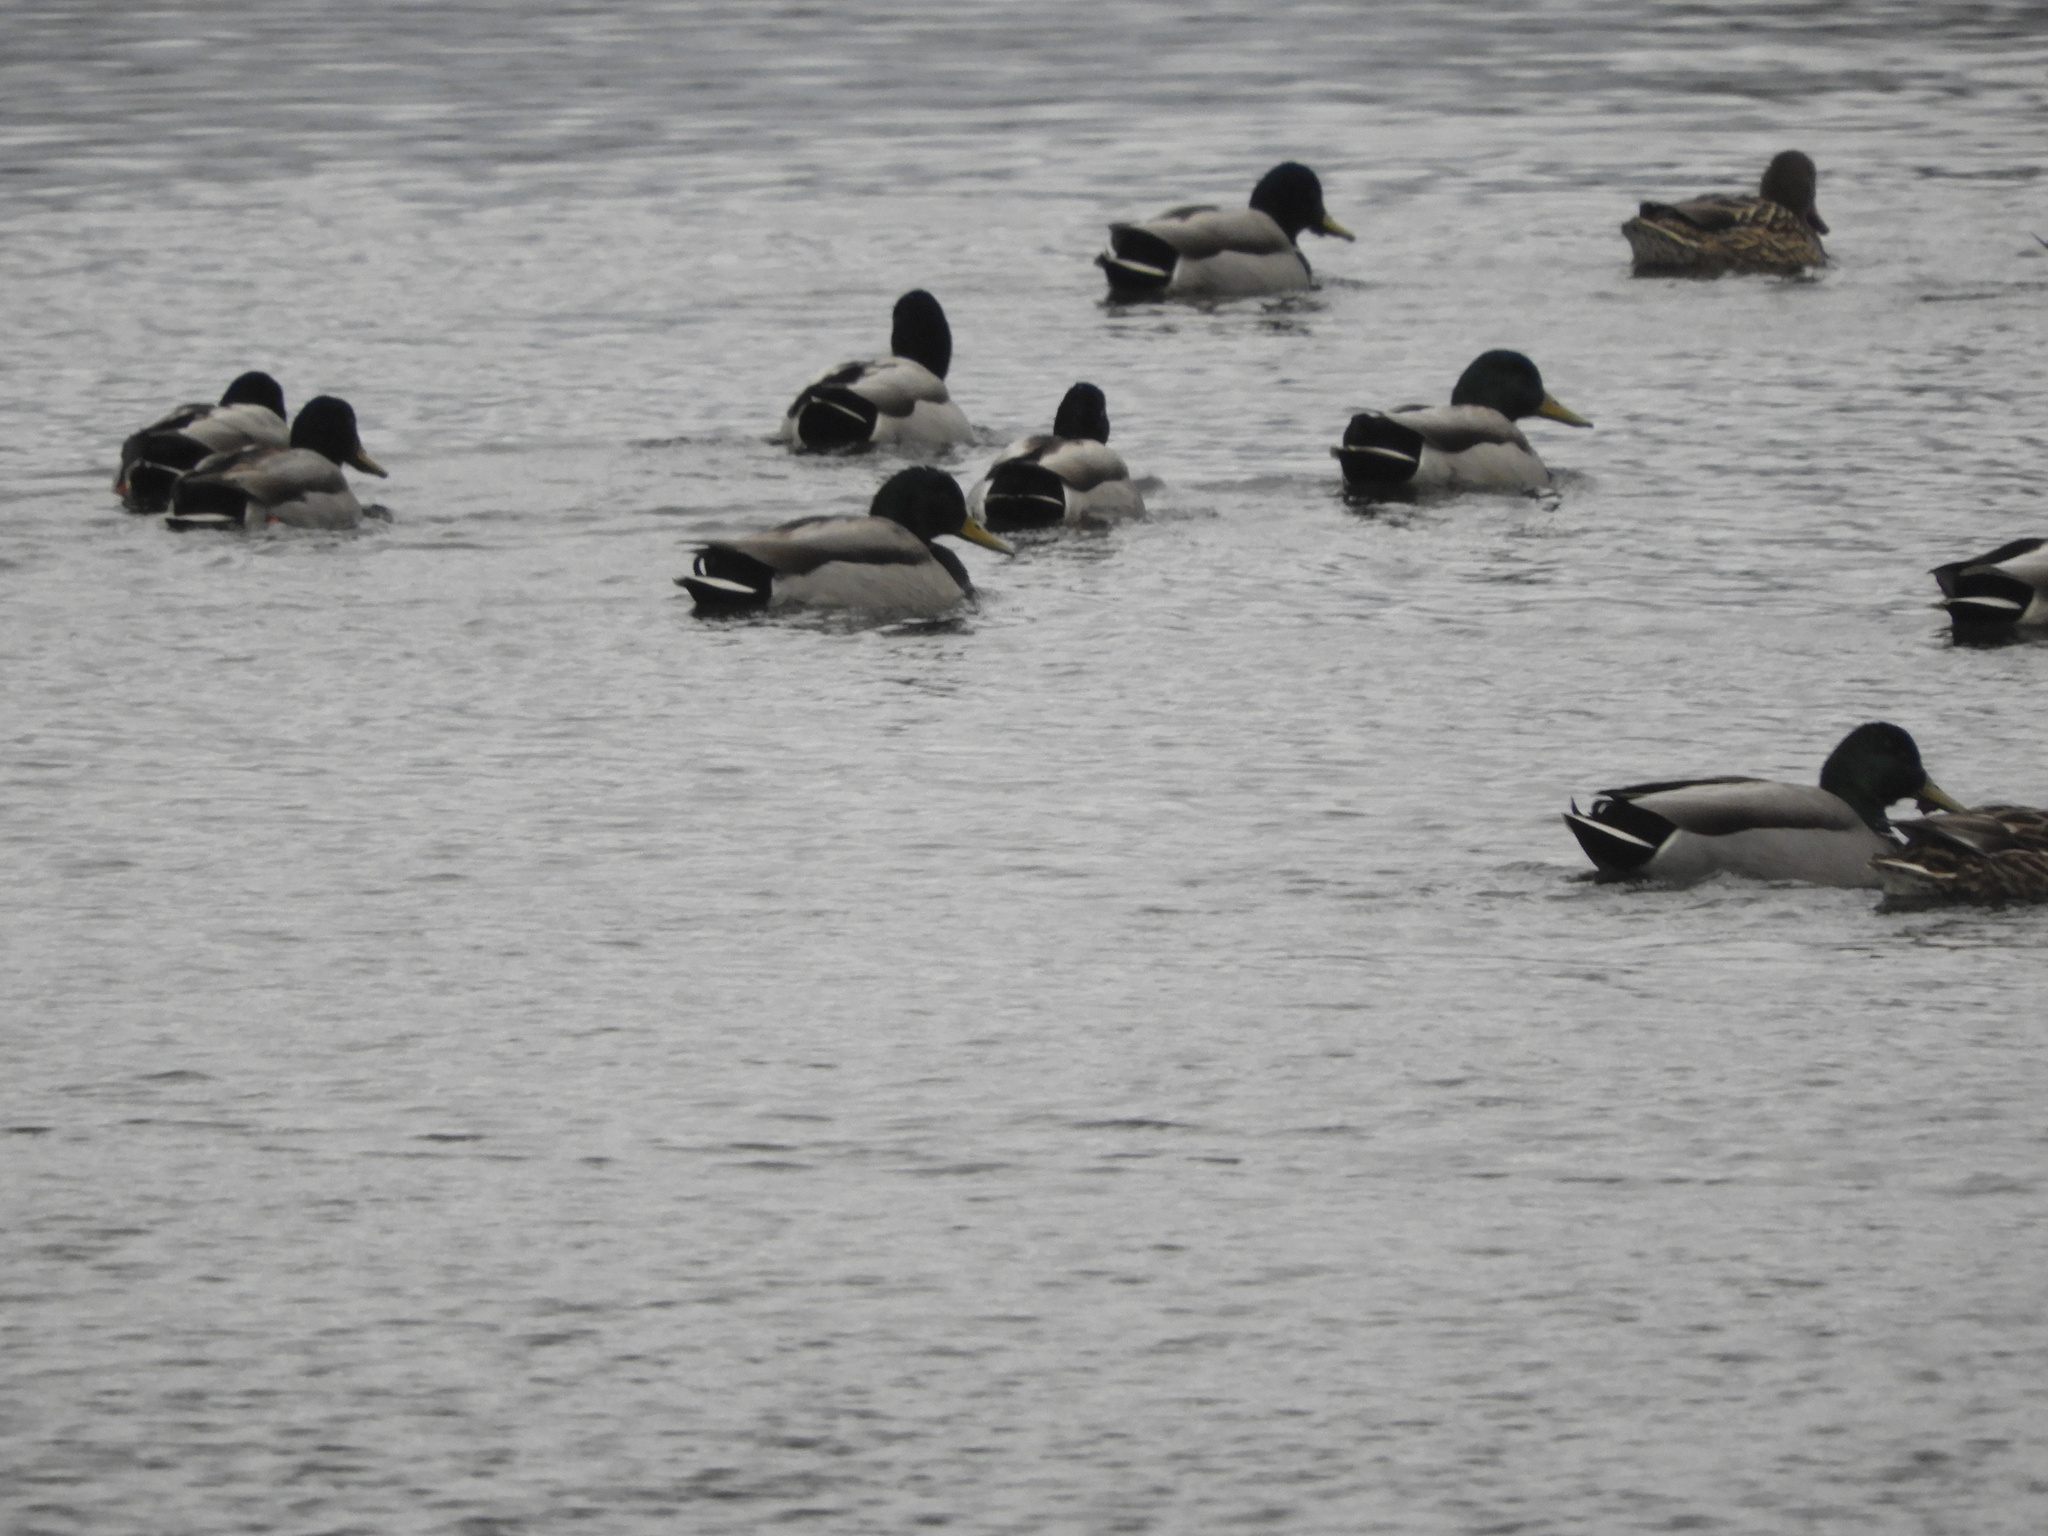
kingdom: Animalia
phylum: Chordata
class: Aves
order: Anseriformes
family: Anatidae
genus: Anas
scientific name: Anas platyrhynchos
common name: Mallard
